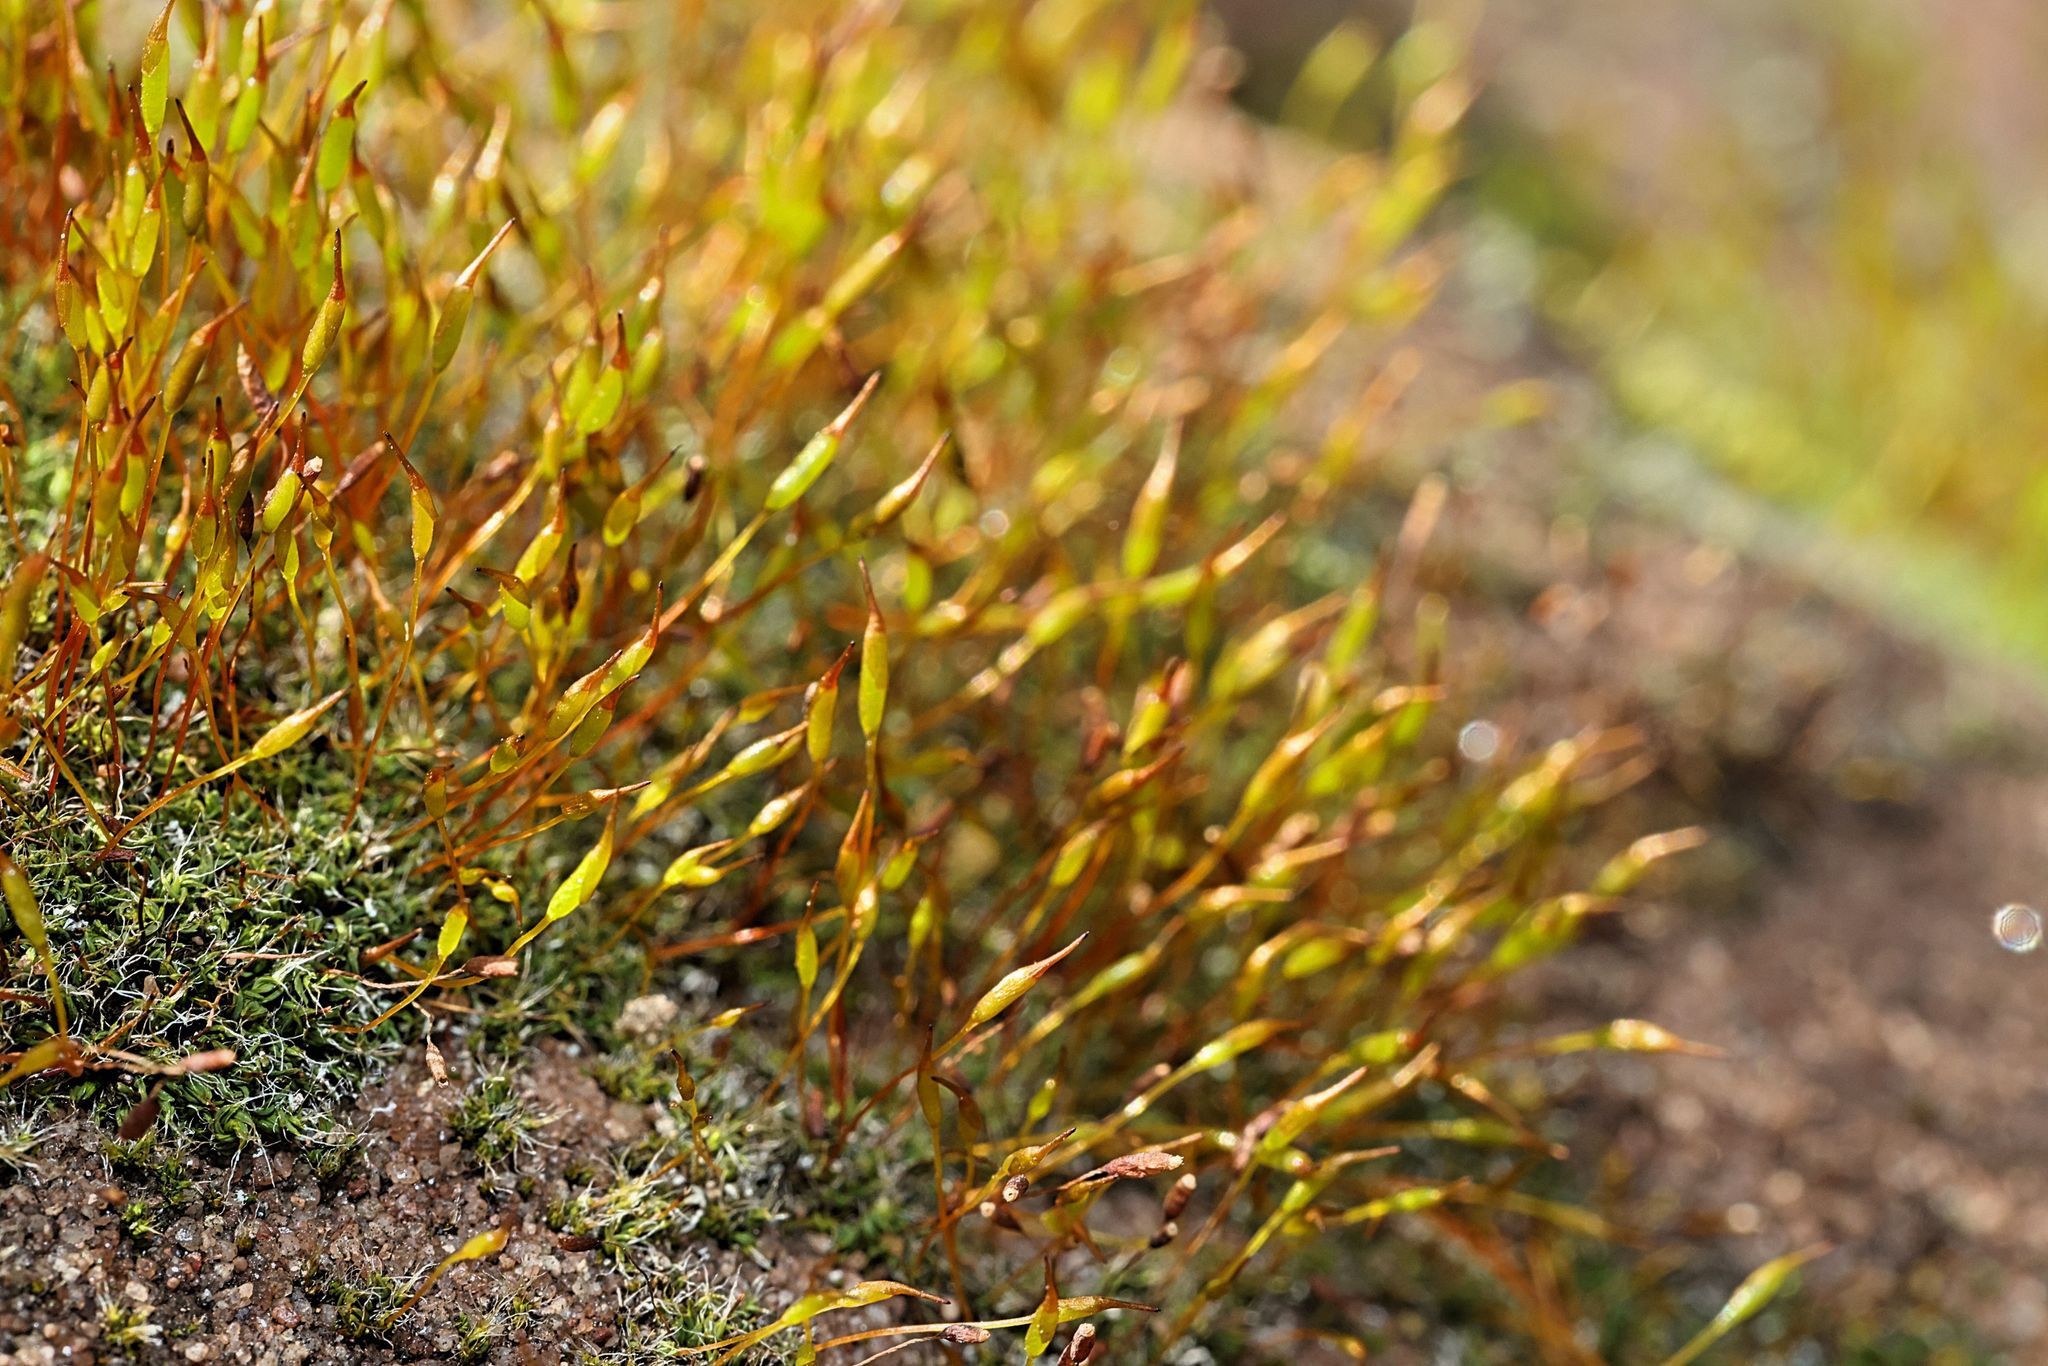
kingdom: Plantae
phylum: Bryophyta
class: Bryopsida
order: Pottiales
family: Pottiaceae
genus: Tortula
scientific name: Tortula muralis
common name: Wall screw-moss
